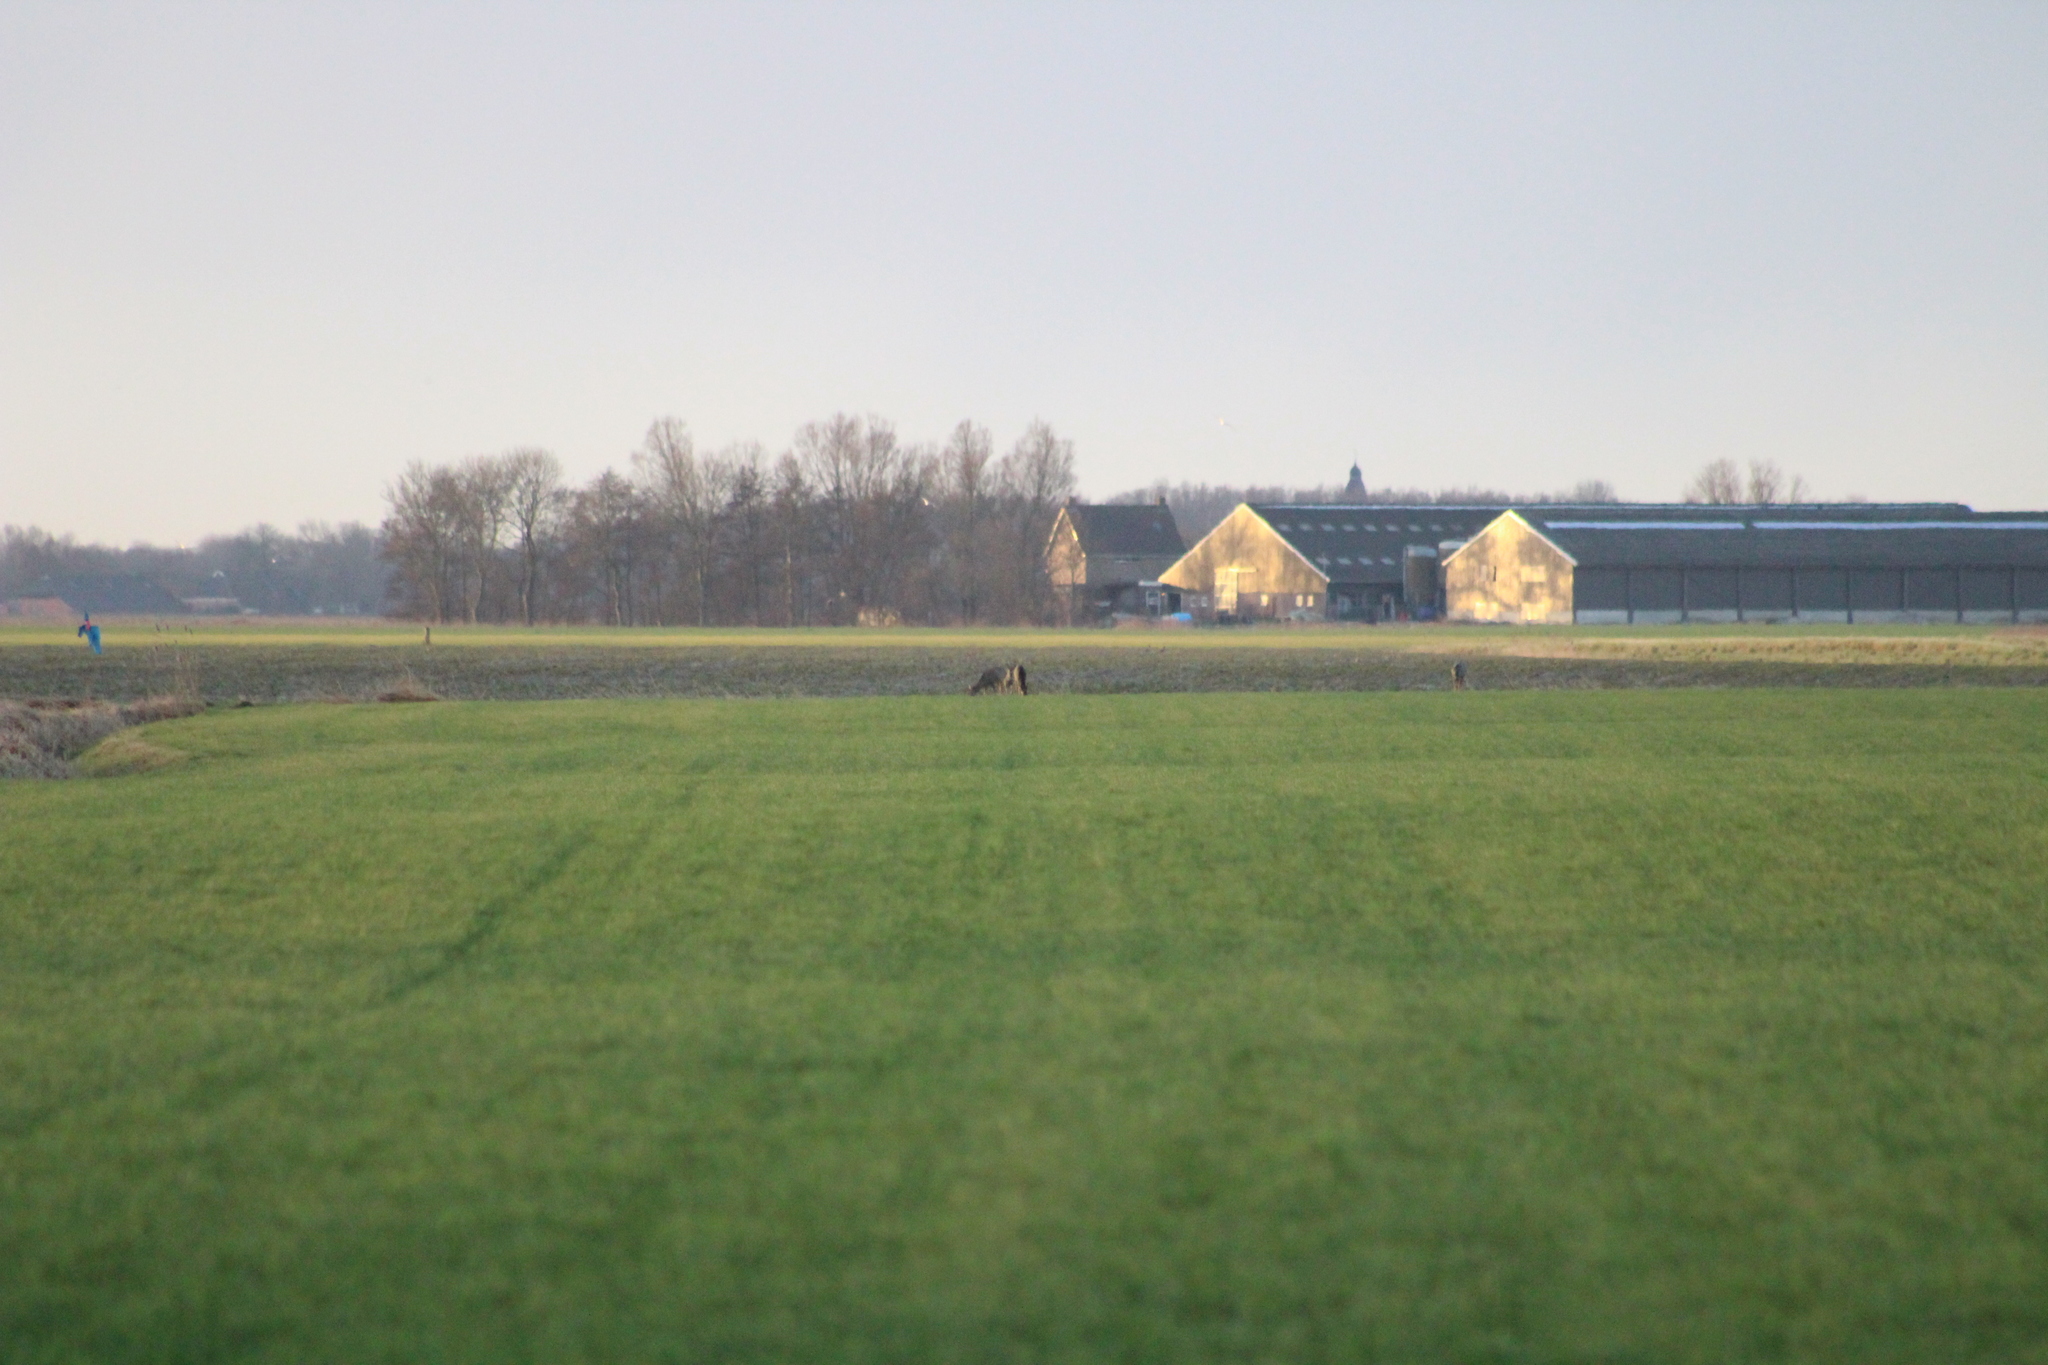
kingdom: Animalia
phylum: Chordata
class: Mammalia
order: Artiodactyla
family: Cervidae
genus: Capreolus
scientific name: Capreolus capreolus
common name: Western roe deer
